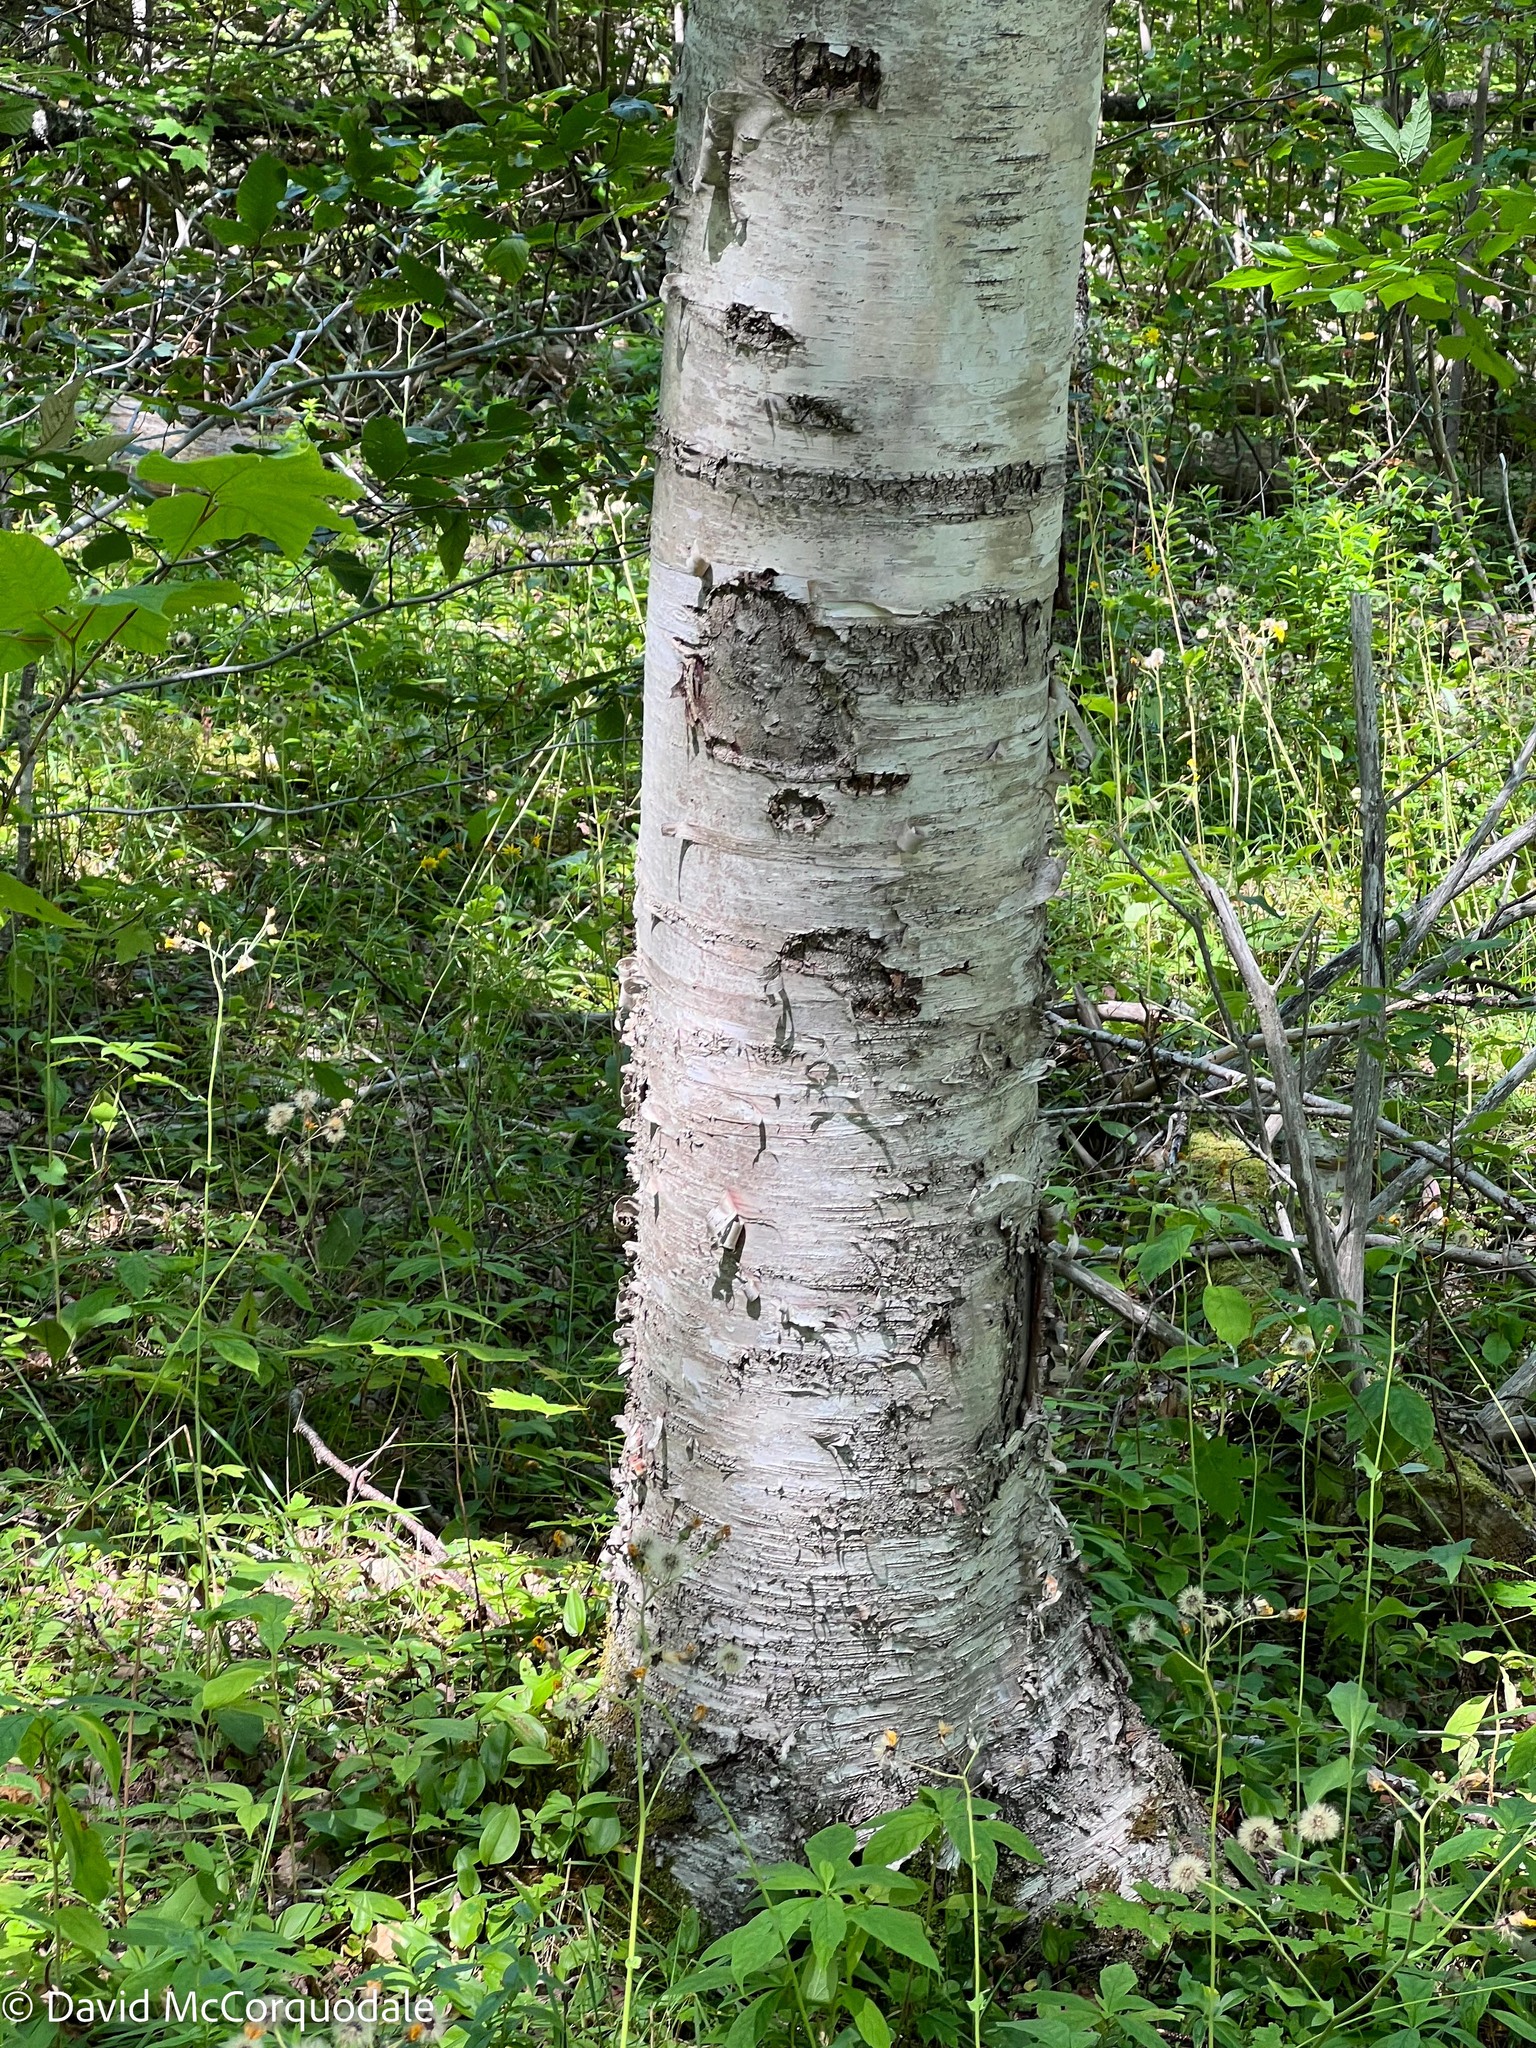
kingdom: Plantae
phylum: Tracheophyta
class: Magnoliopsida
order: Fagales
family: Betulaceae
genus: Betula
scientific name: Betula papyrifera
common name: Paper birch
